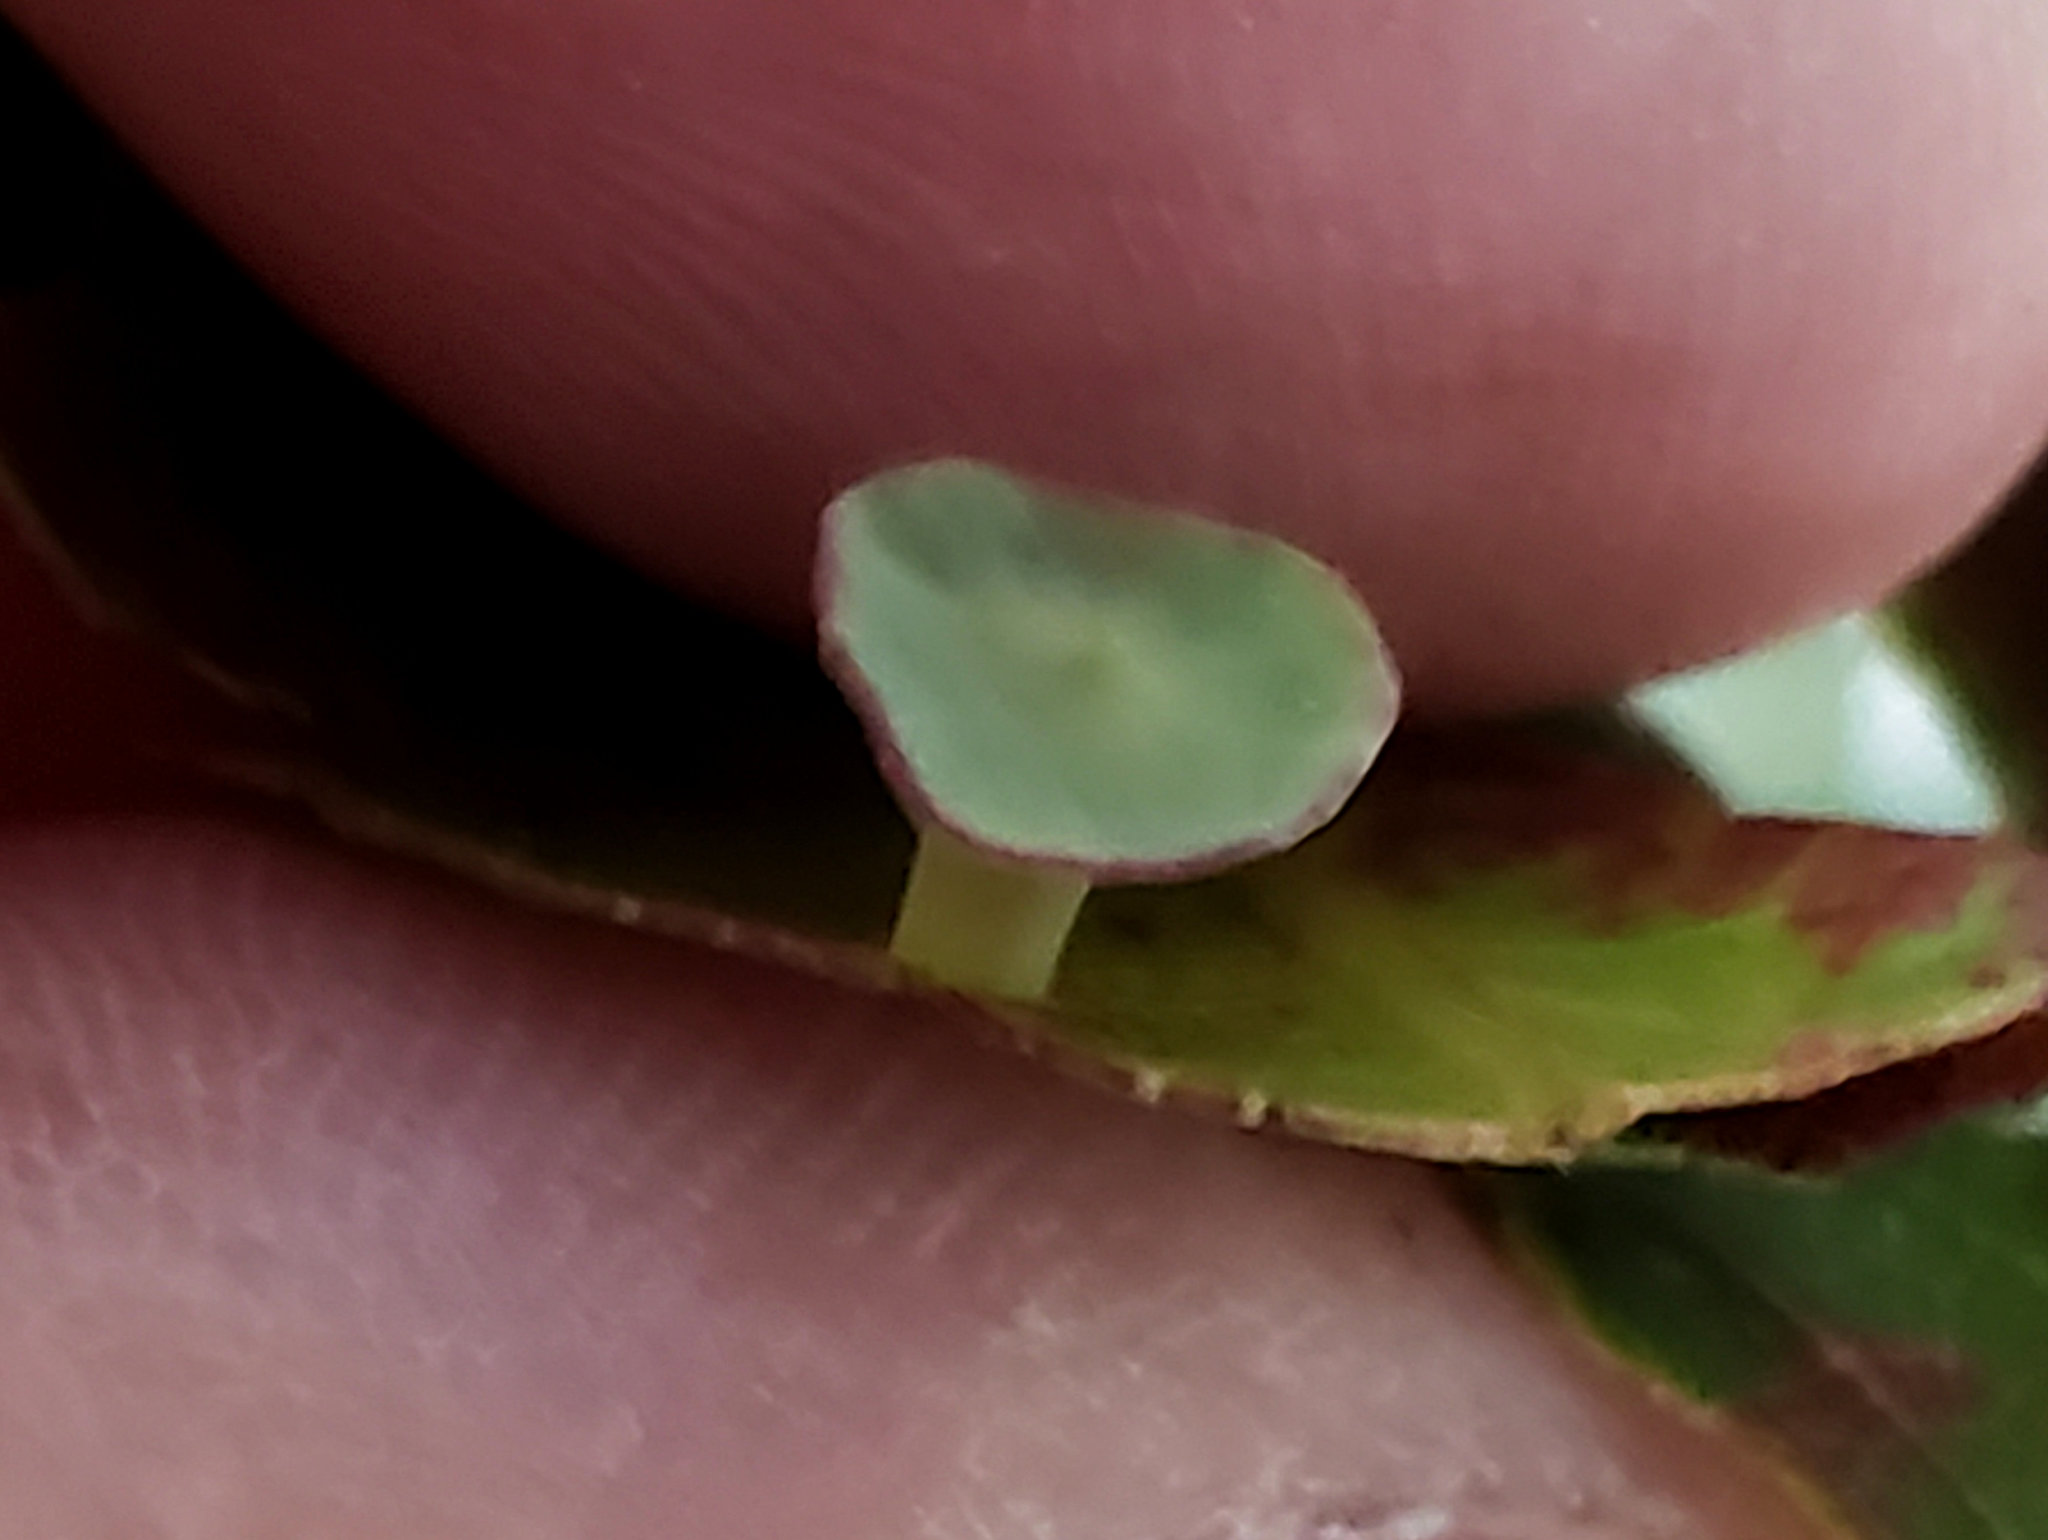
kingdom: Animalia
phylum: Arthropoda
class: Insecta
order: Hymenoptera
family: Cynipidae
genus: Amphibolips
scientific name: Amphibolips quercuspomiformis
